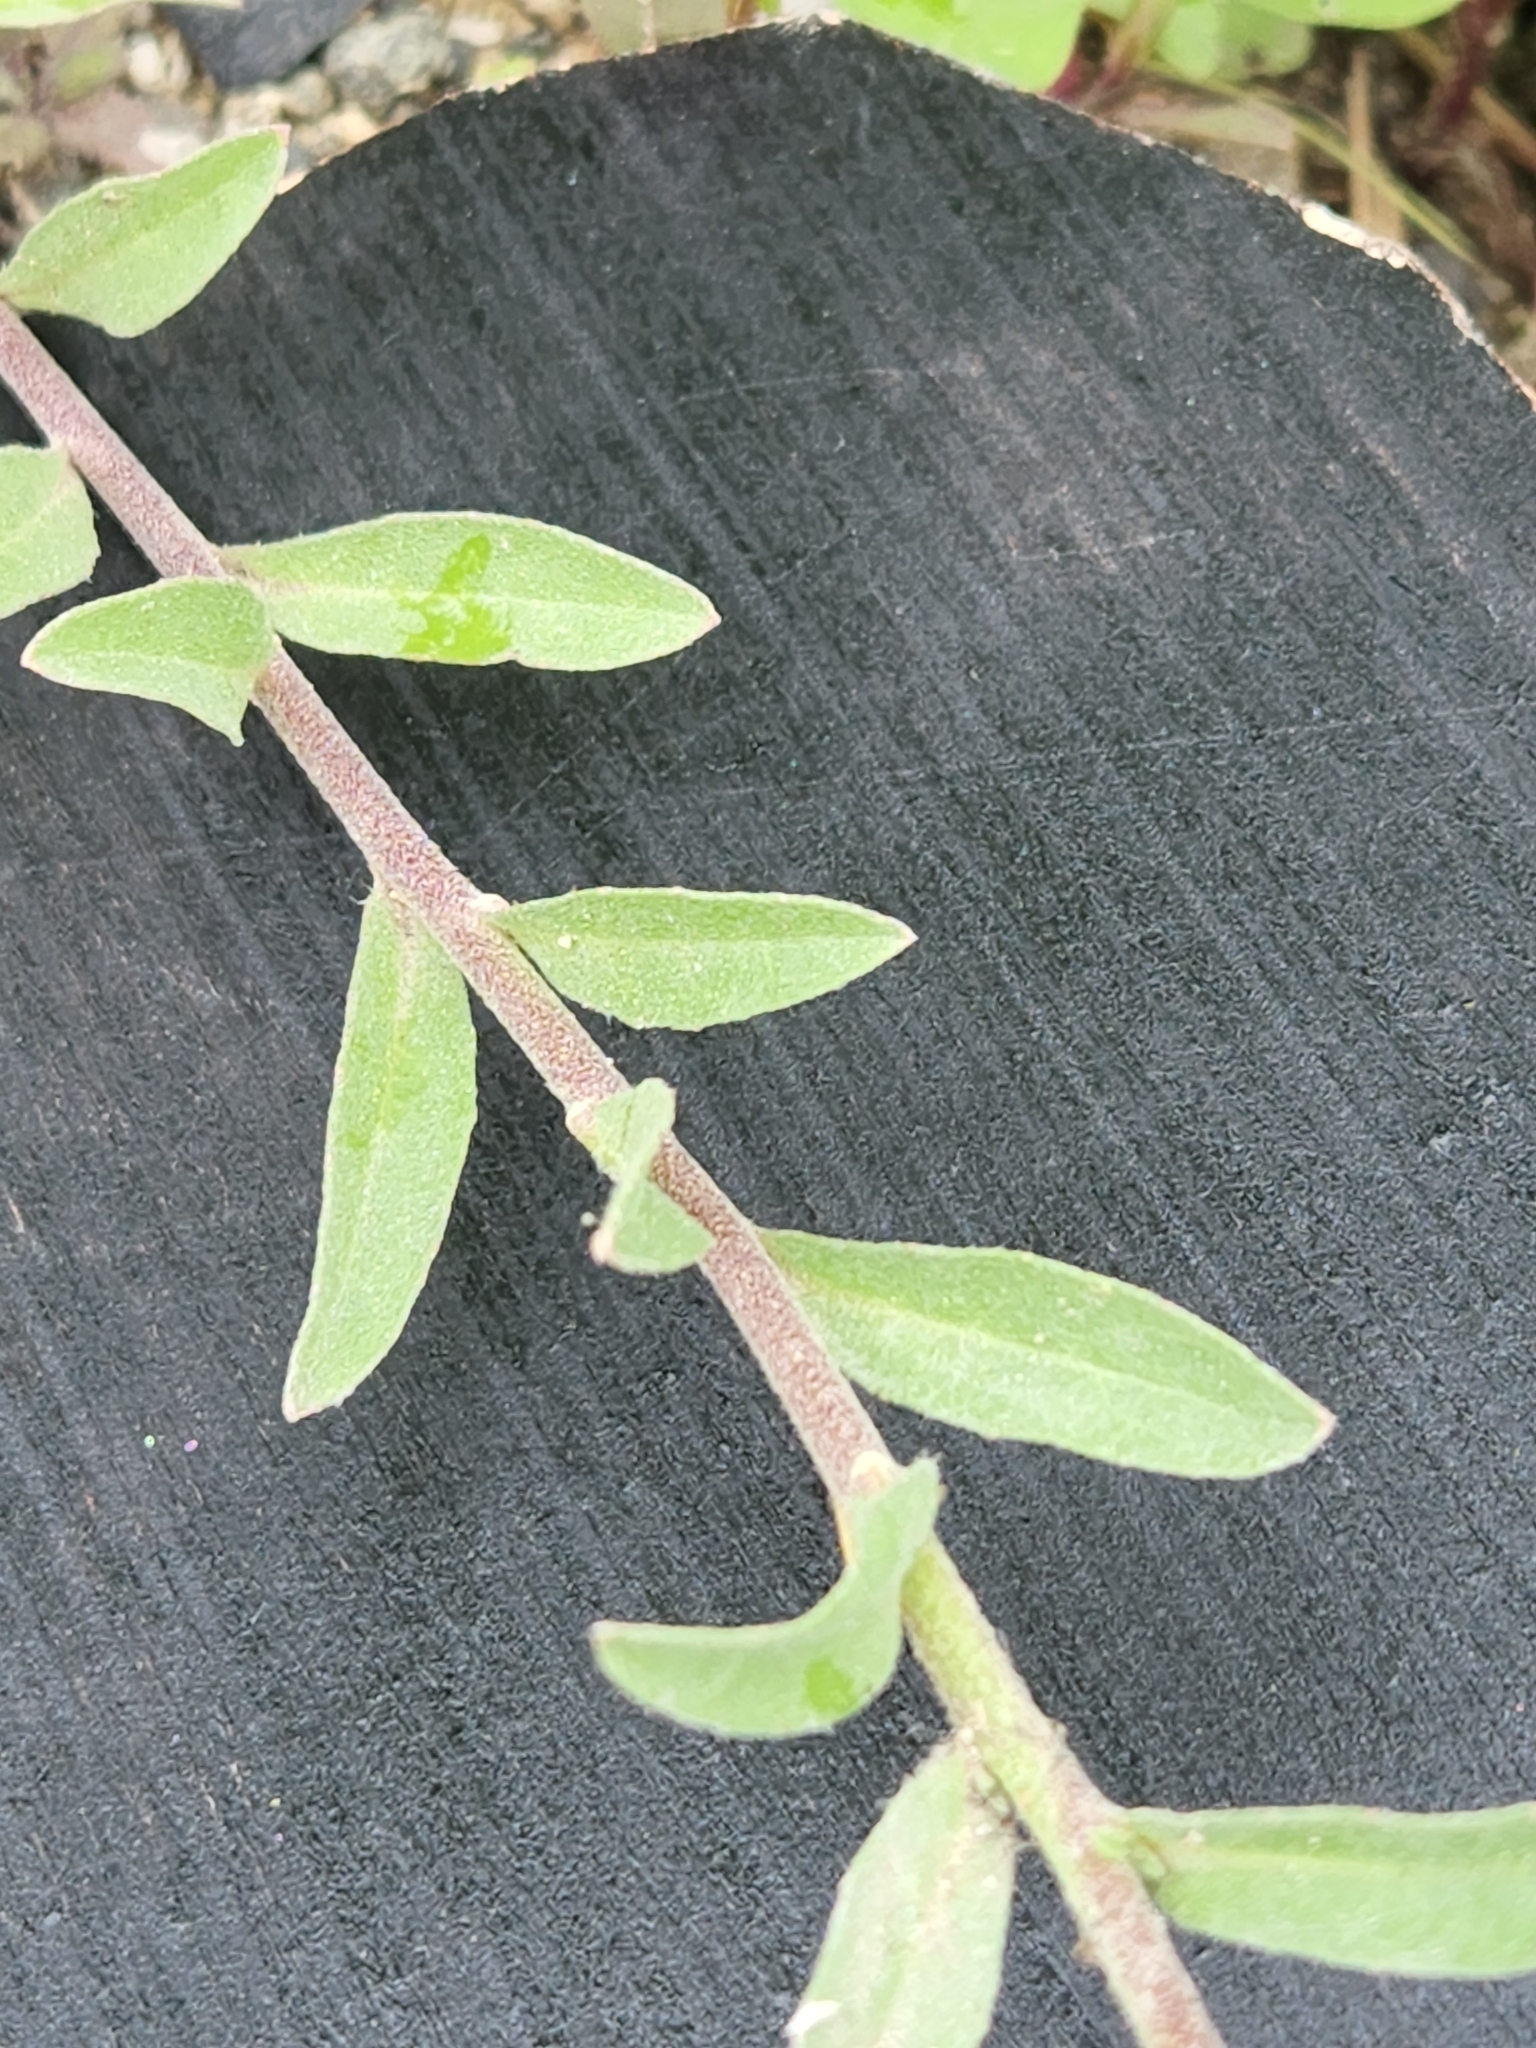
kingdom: Plantae
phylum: Tracheophyta
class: Magnoliopsida
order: Brassicales
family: Brassicaceae
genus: Berteroa
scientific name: Berteroa incana
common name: Hoary alison
